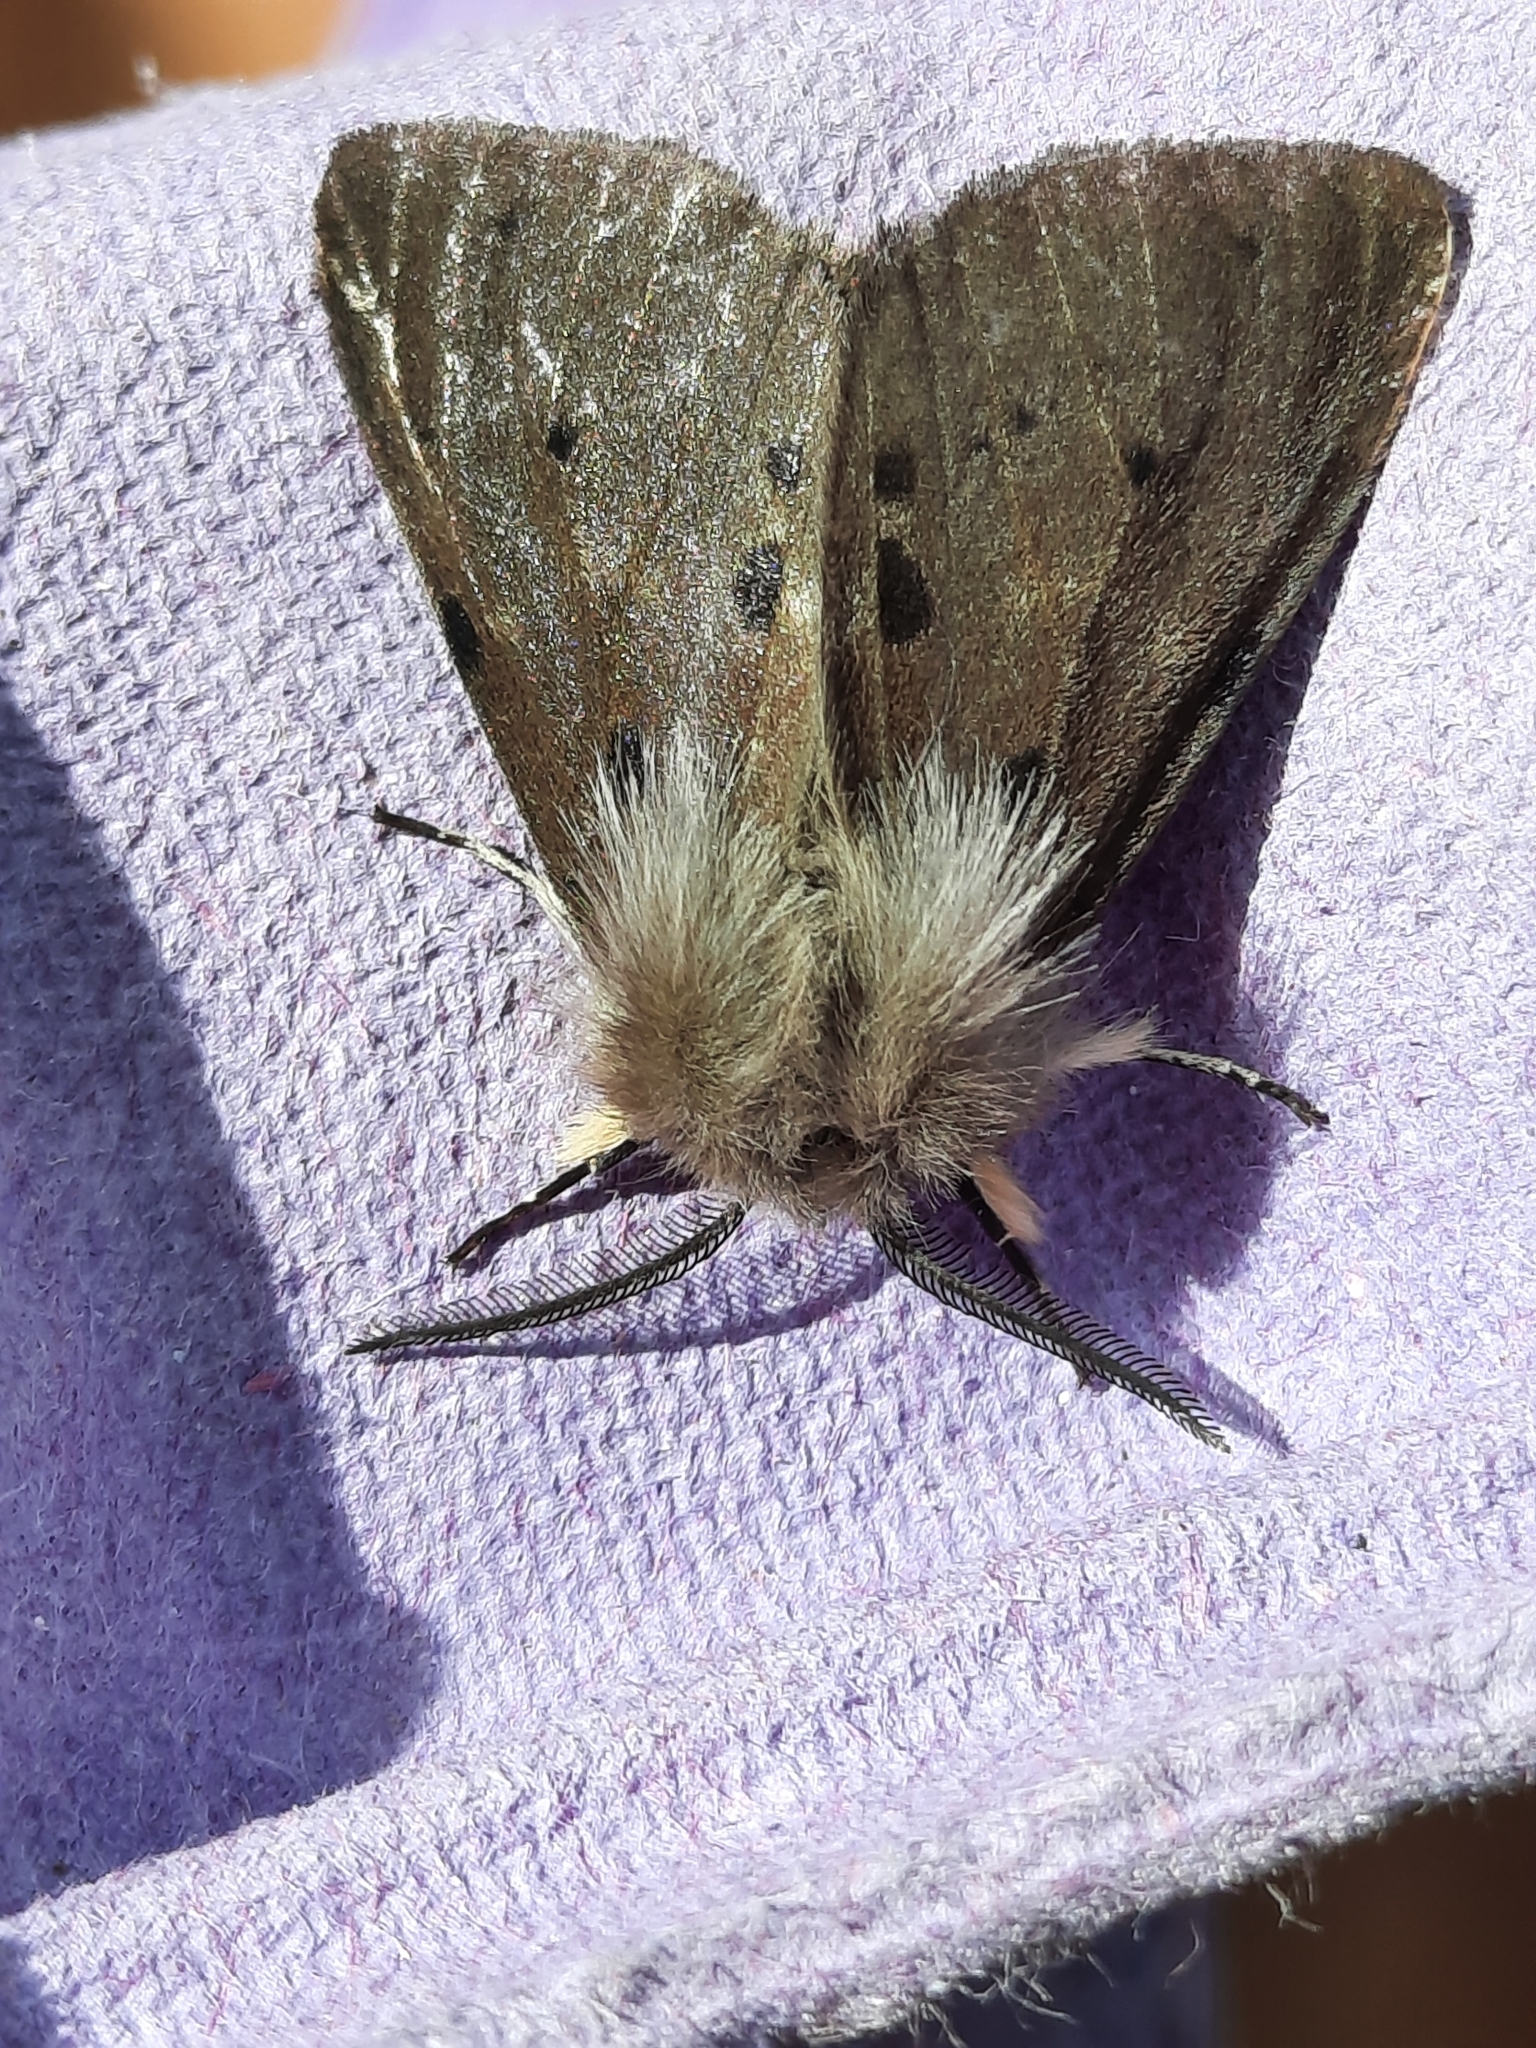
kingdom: Animalia
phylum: Arthropoda
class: Insecta
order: Lepidoptera
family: Erebidae
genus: Diaphora
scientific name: Diaphora mendica
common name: Muslin moth
